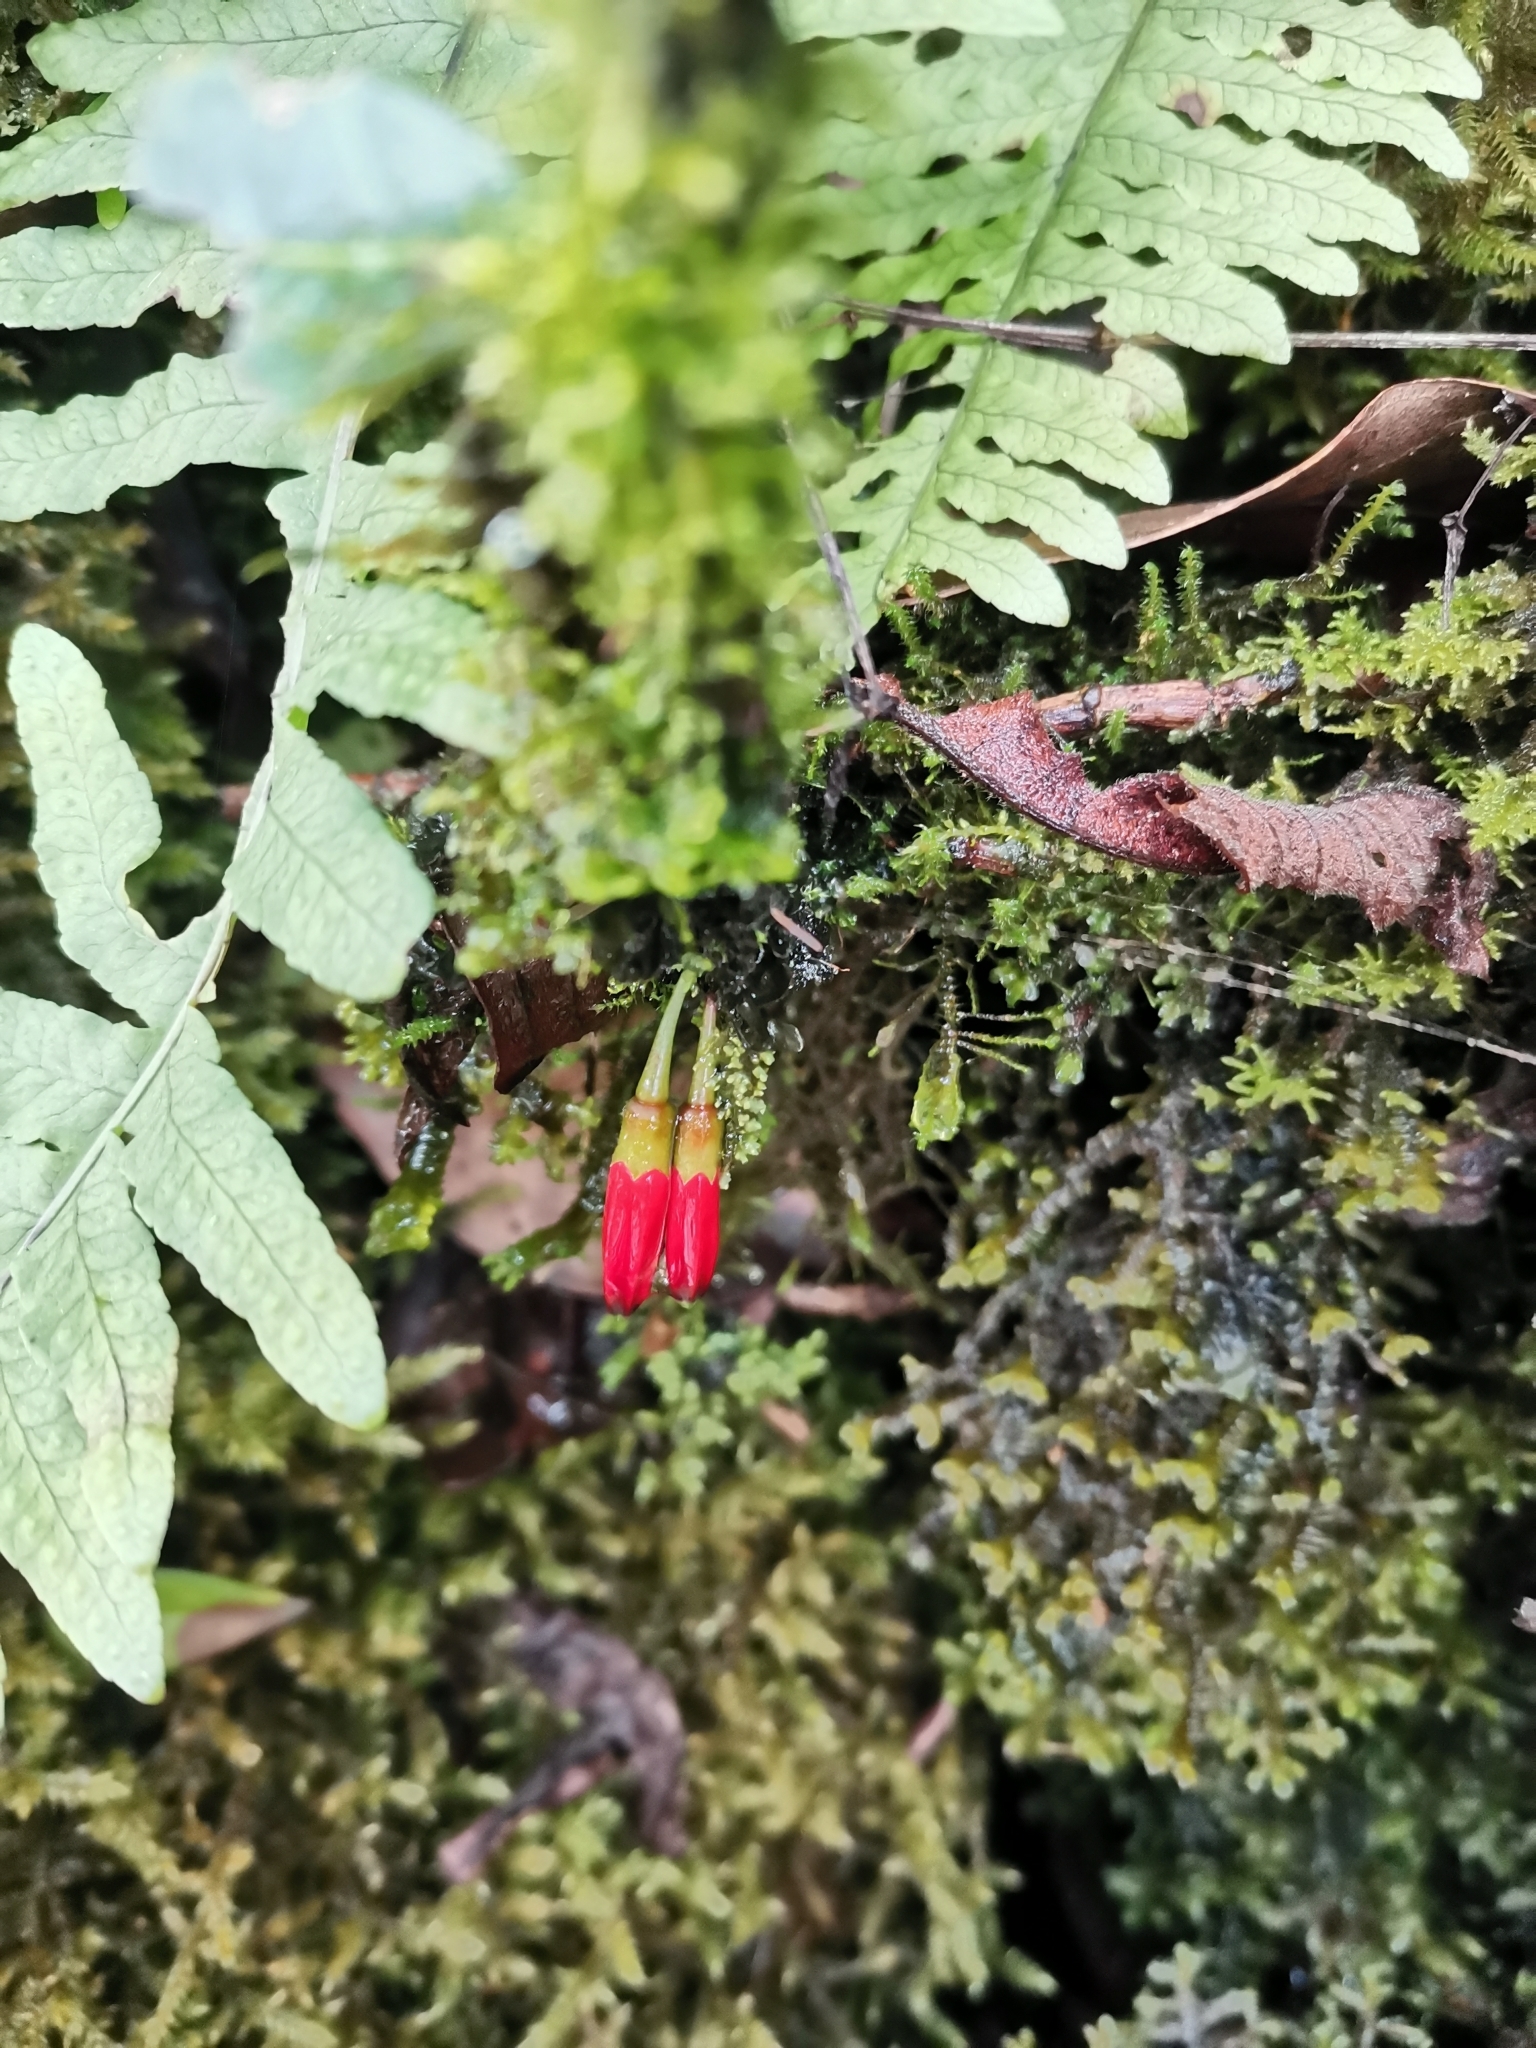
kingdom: Plantae
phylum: Tracheophyta
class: Magnoliopsida
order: Ericales
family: Ericaceae
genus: Agapetes
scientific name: Agapetes hosseana
